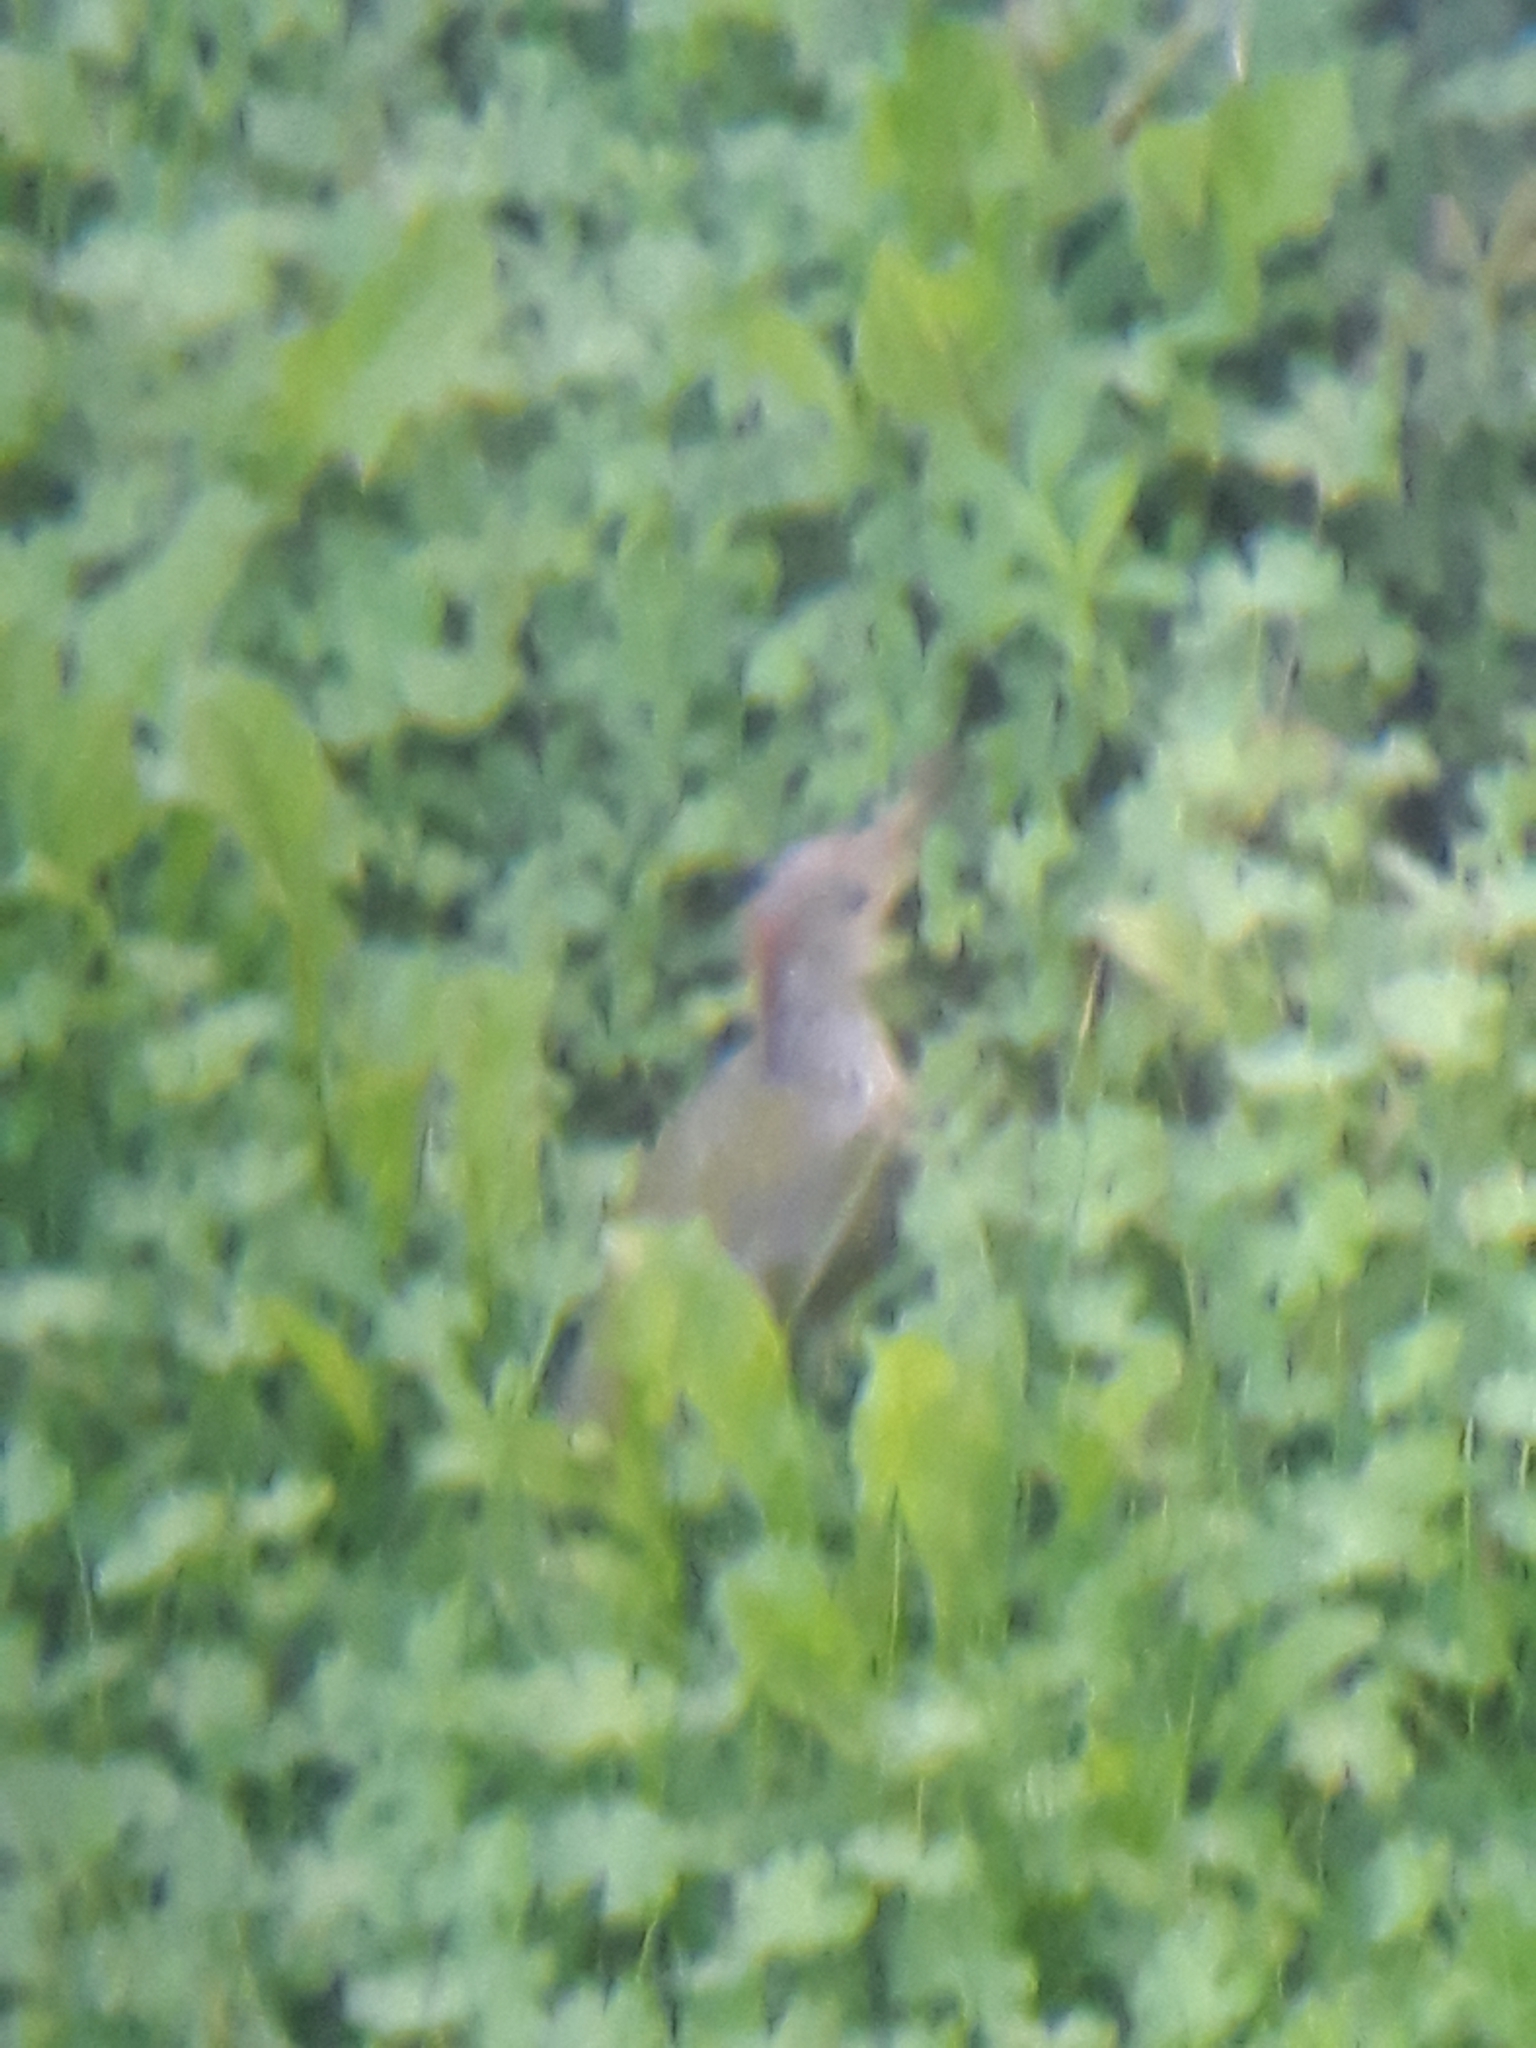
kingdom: Animalia
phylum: Chordata
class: Aves
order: Piciformes
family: Picidae
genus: Picus
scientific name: Picus viridis
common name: European green woodpecker
